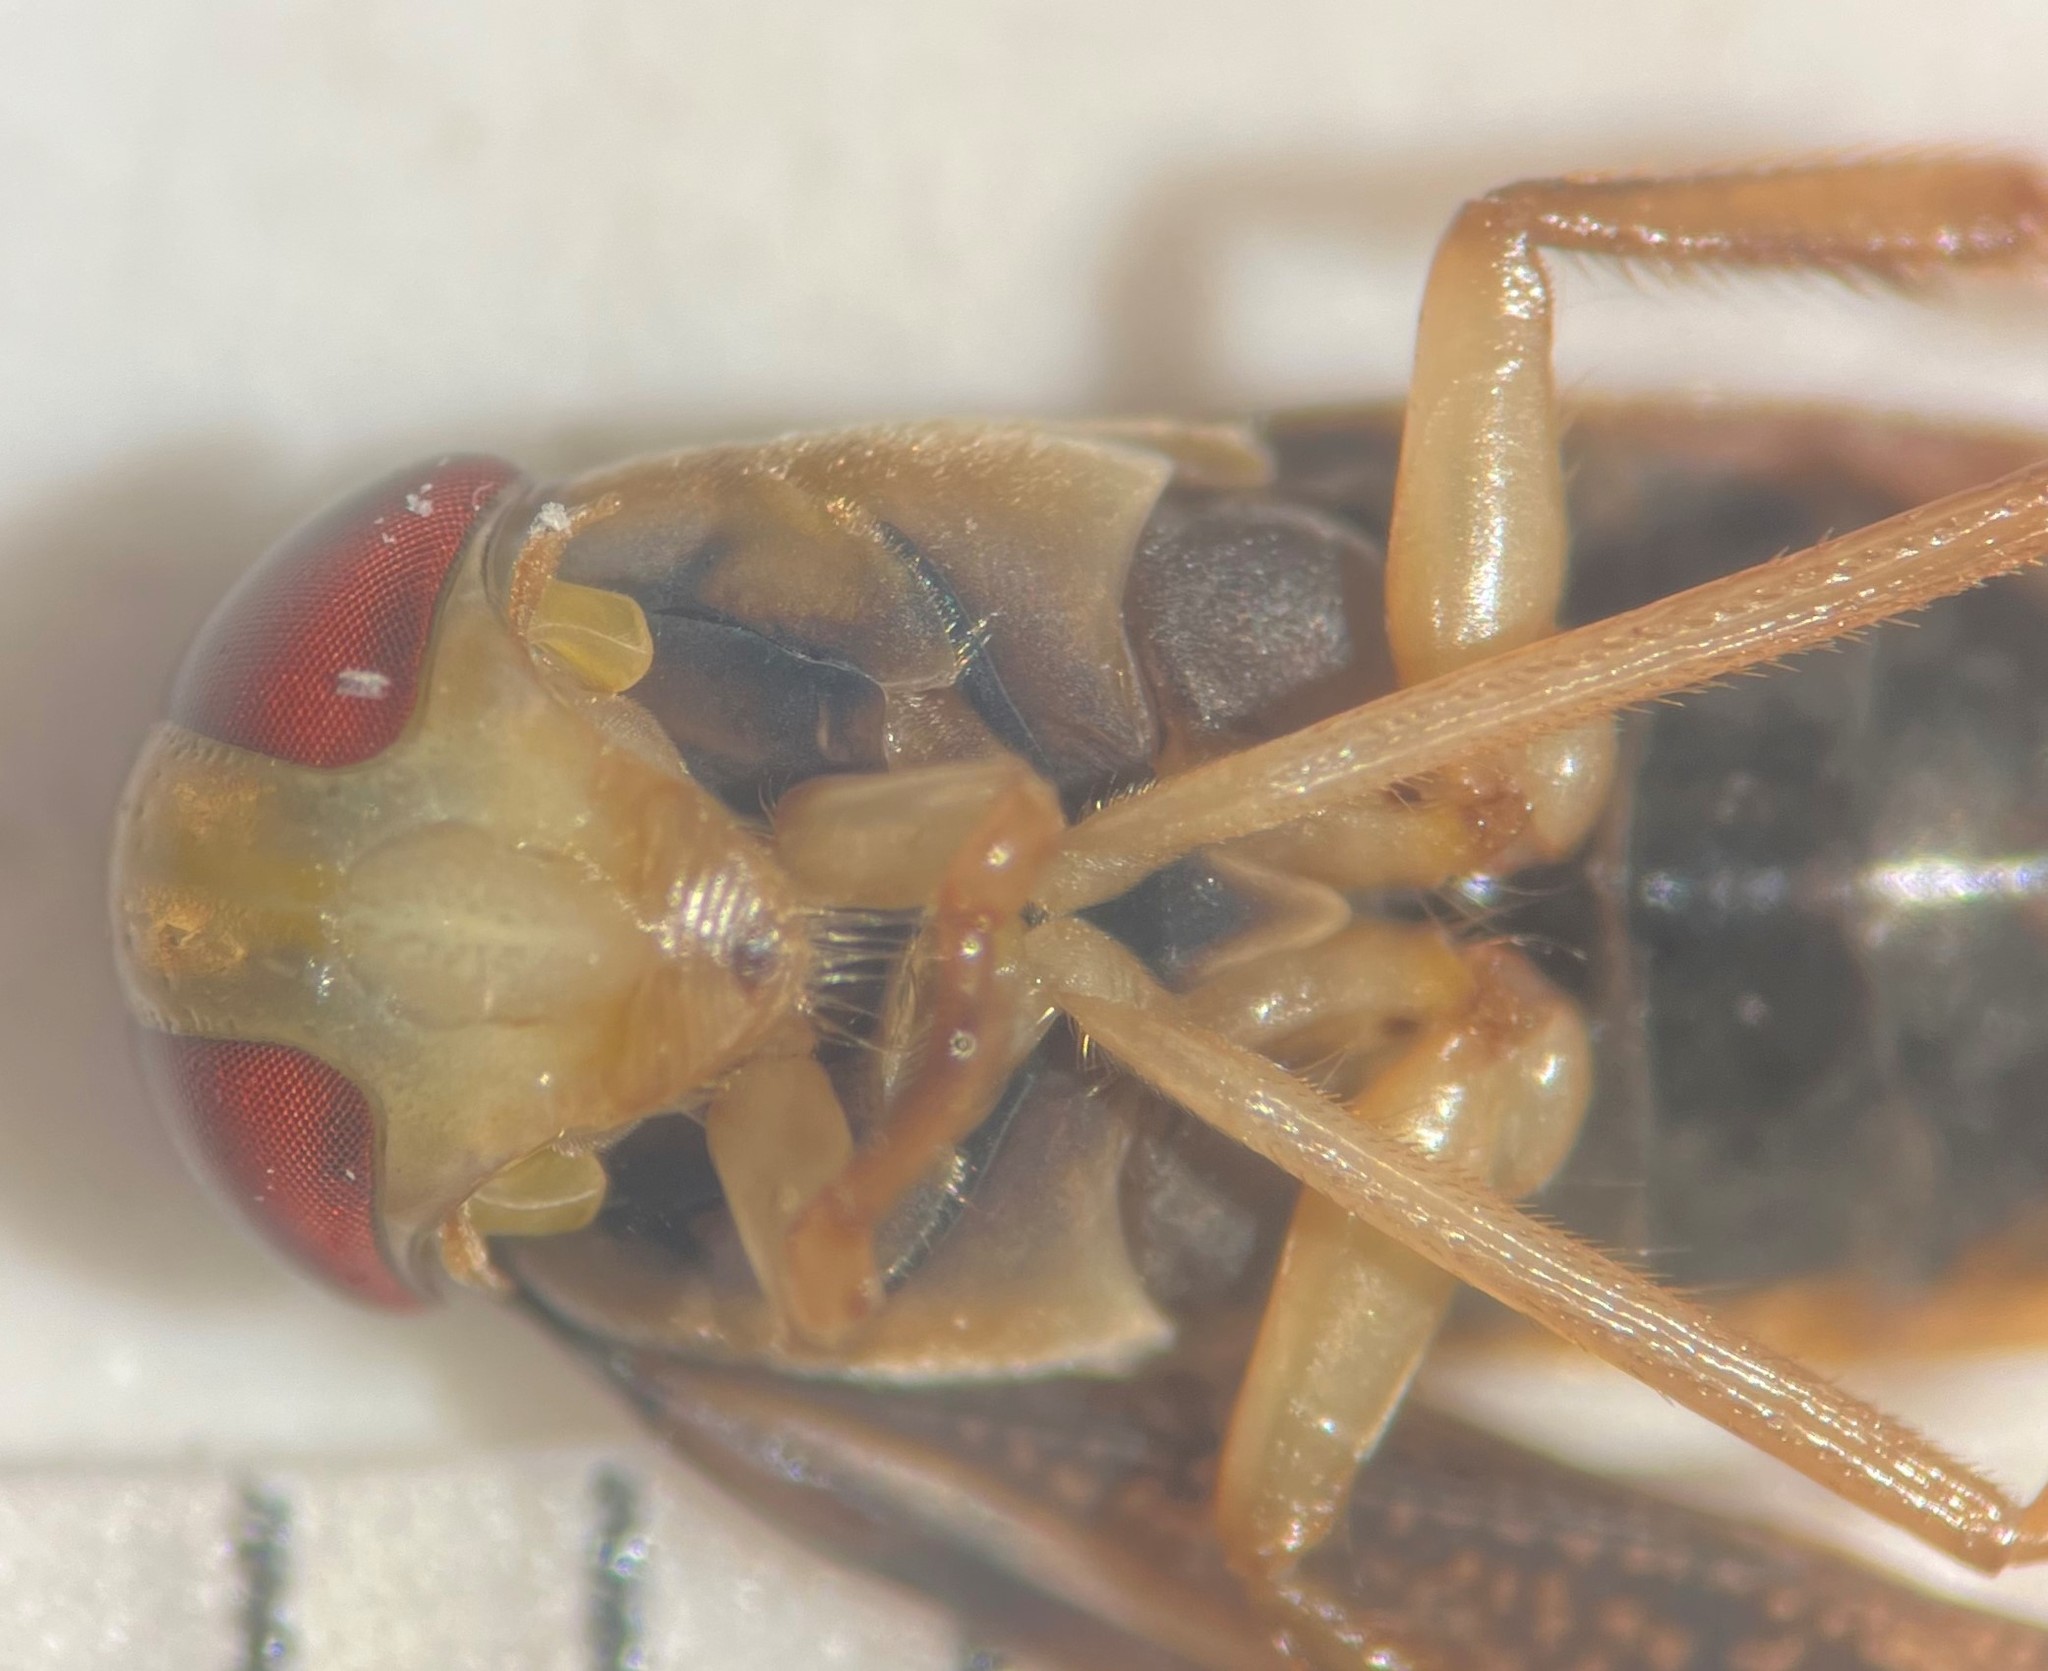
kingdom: Animalia
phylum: Arthropoda
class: Insecta
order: Hemiptera
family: Corixidae
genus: Hesperocorixa
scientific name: Hesperocorixa semilucida
